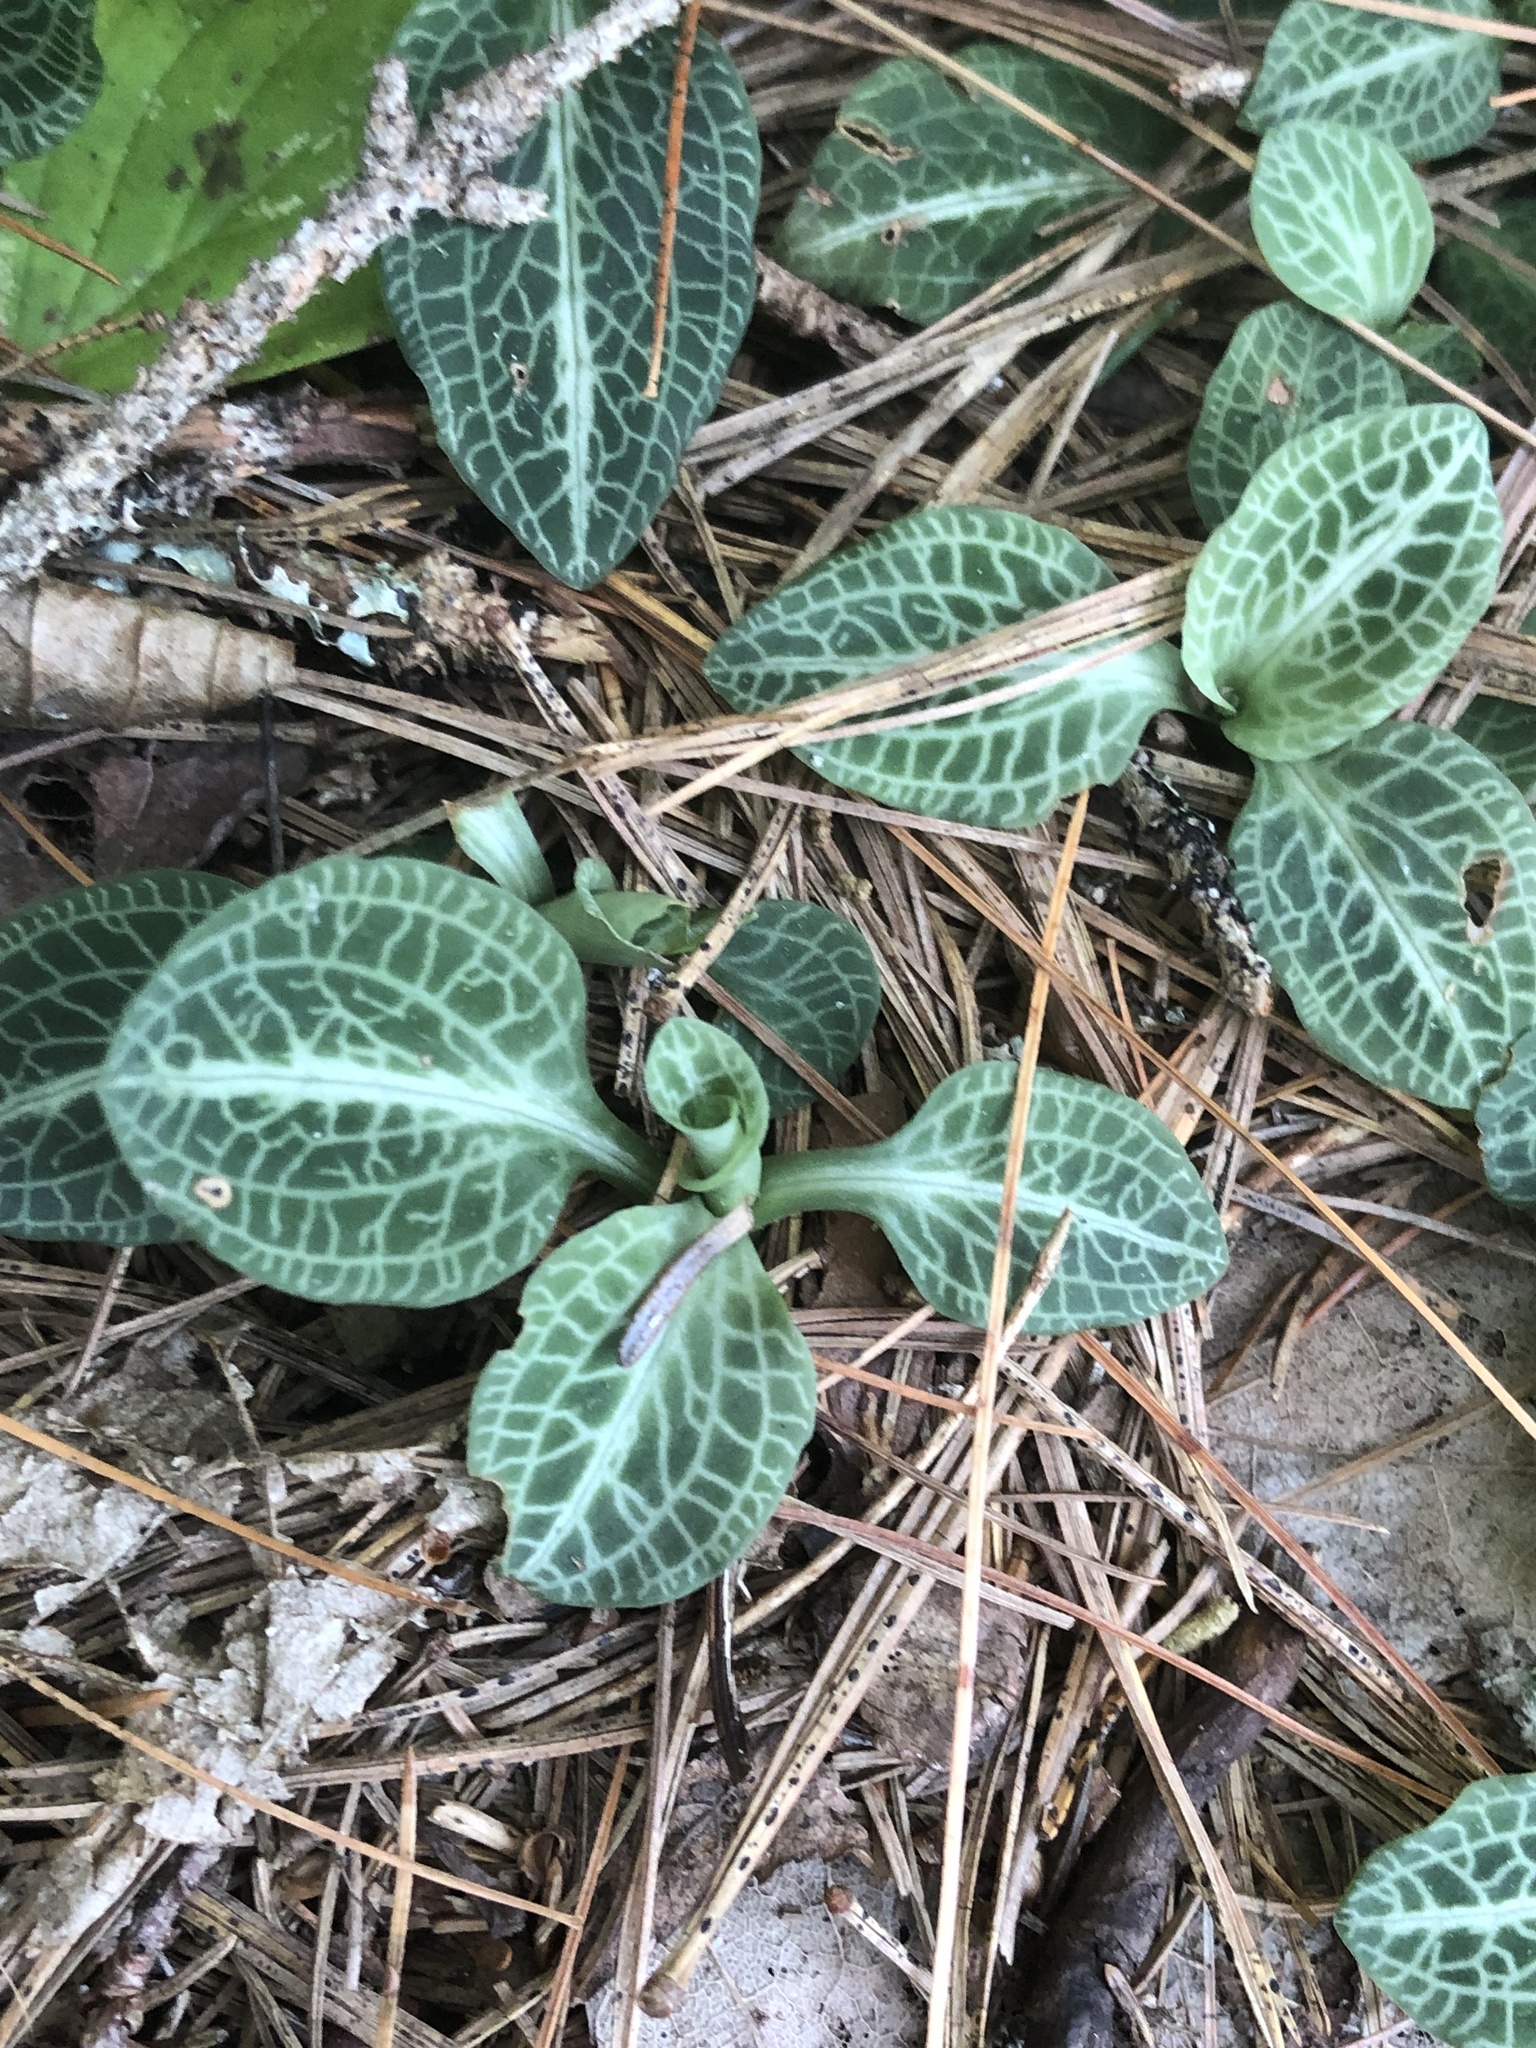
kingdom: Plantae
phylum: Tracheophyta
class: Liliopsida
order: Asparagales
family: Orchidaceae
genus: Goodyera
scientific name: Goodyera pubescens
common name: Downy rattlesnake-plantain
